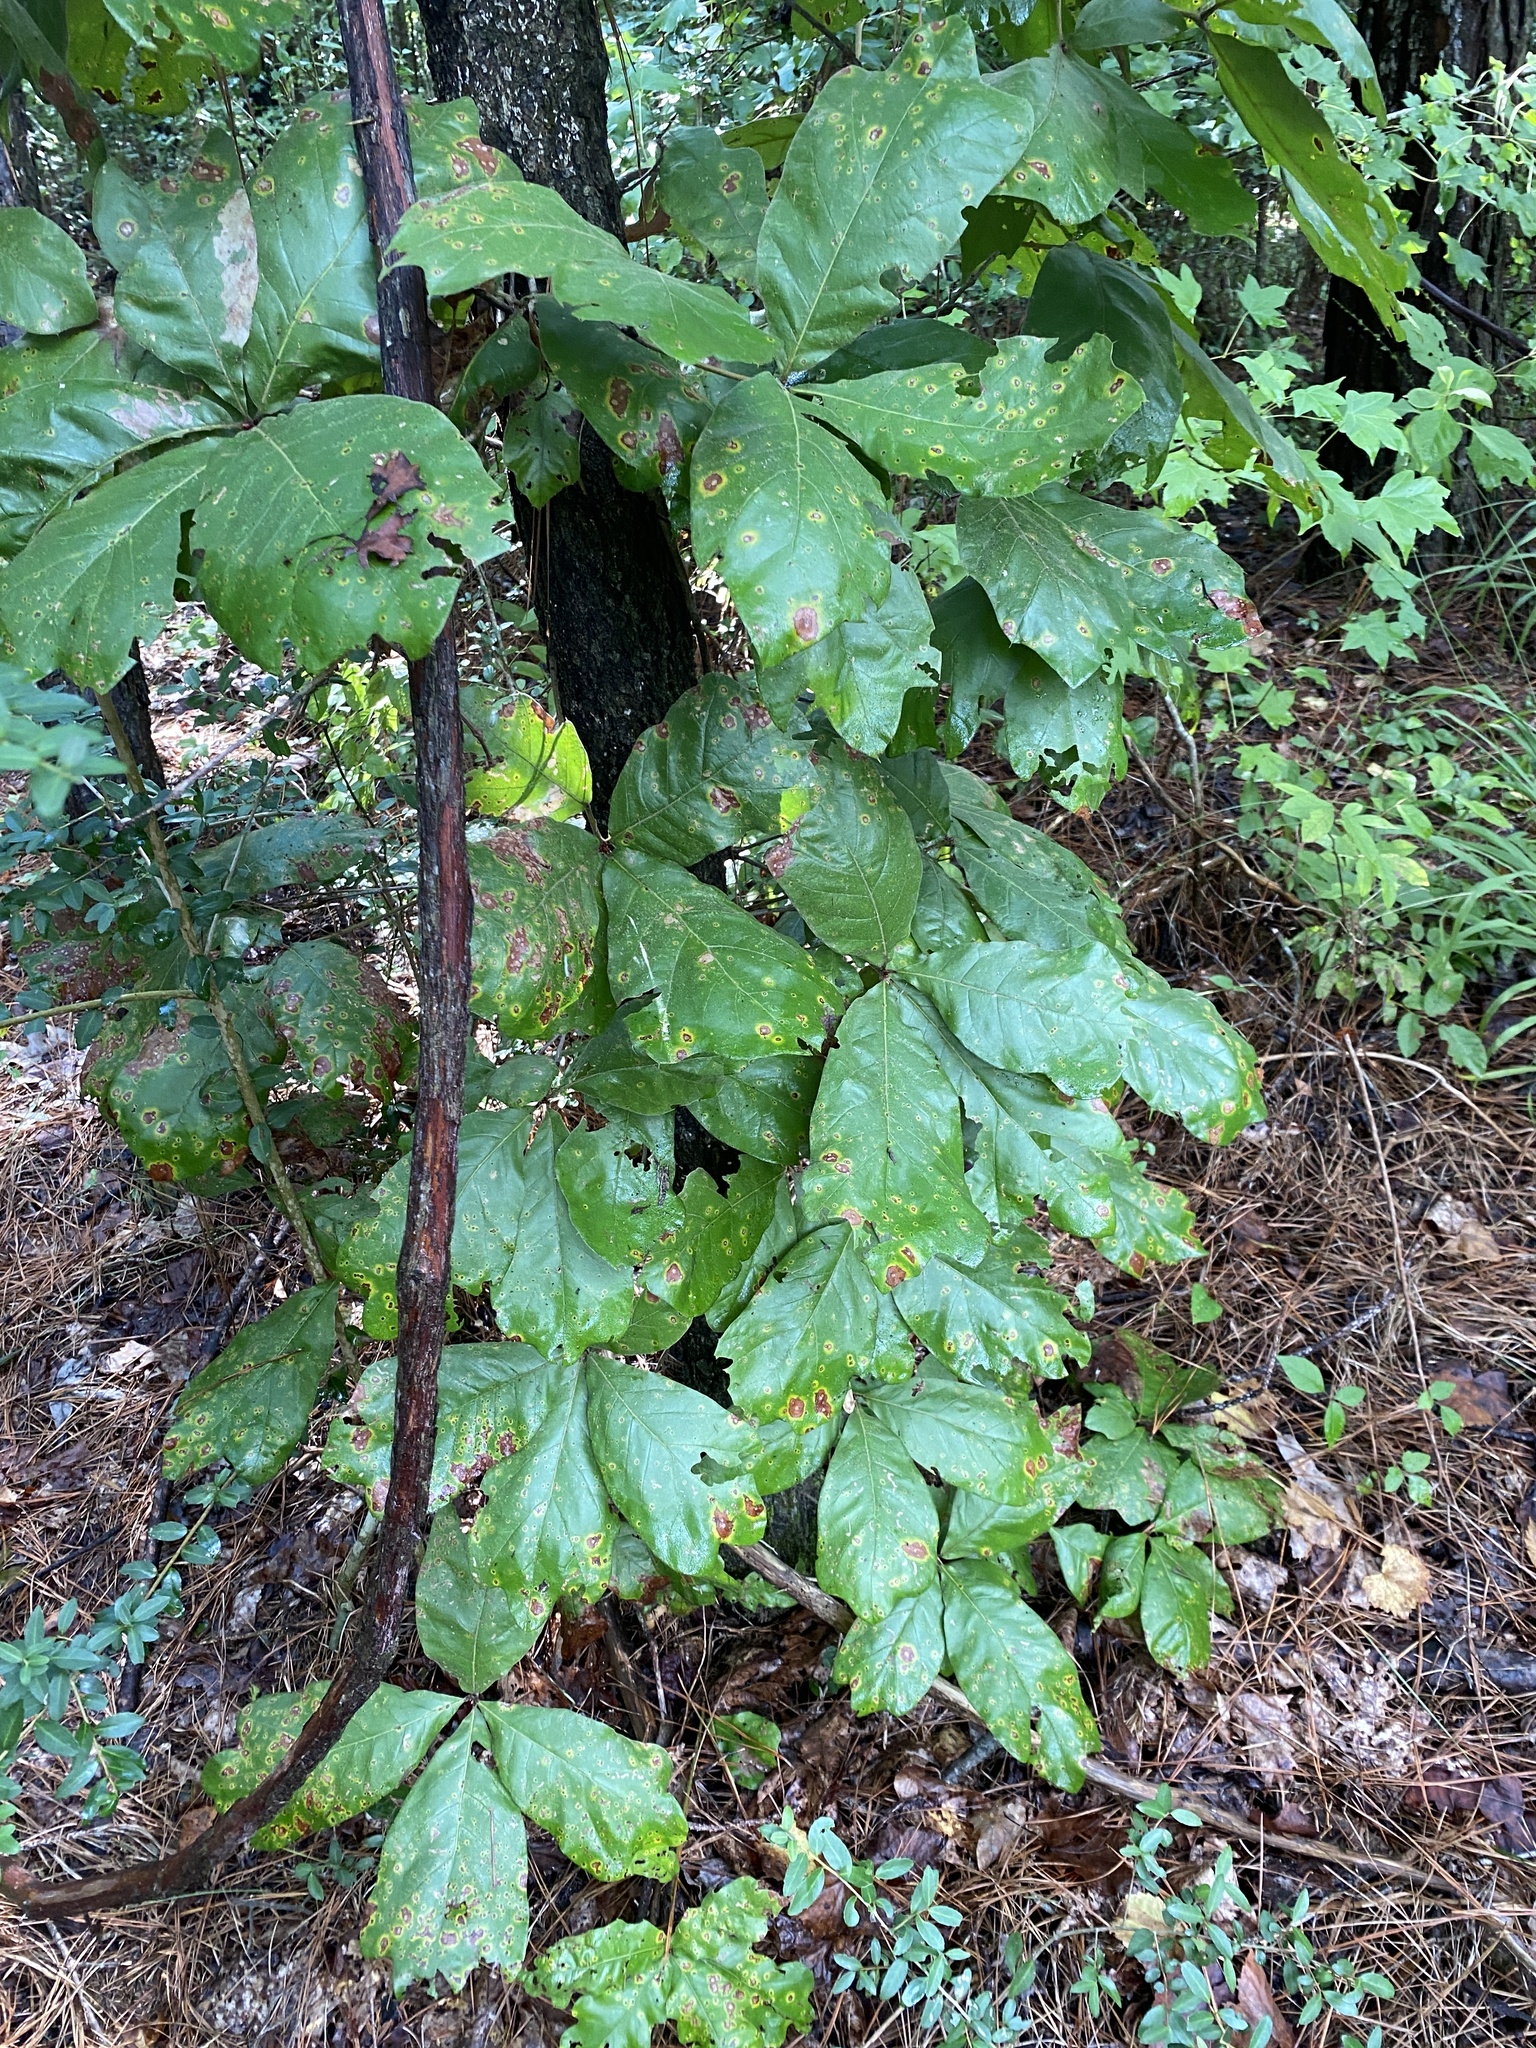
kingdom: Plantae
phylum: Tracheophyta
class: Magnoliopsida
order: Fagales
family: Fagaceae
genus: Quercus
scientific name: Quercus marilandica
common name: Blackjack oak
